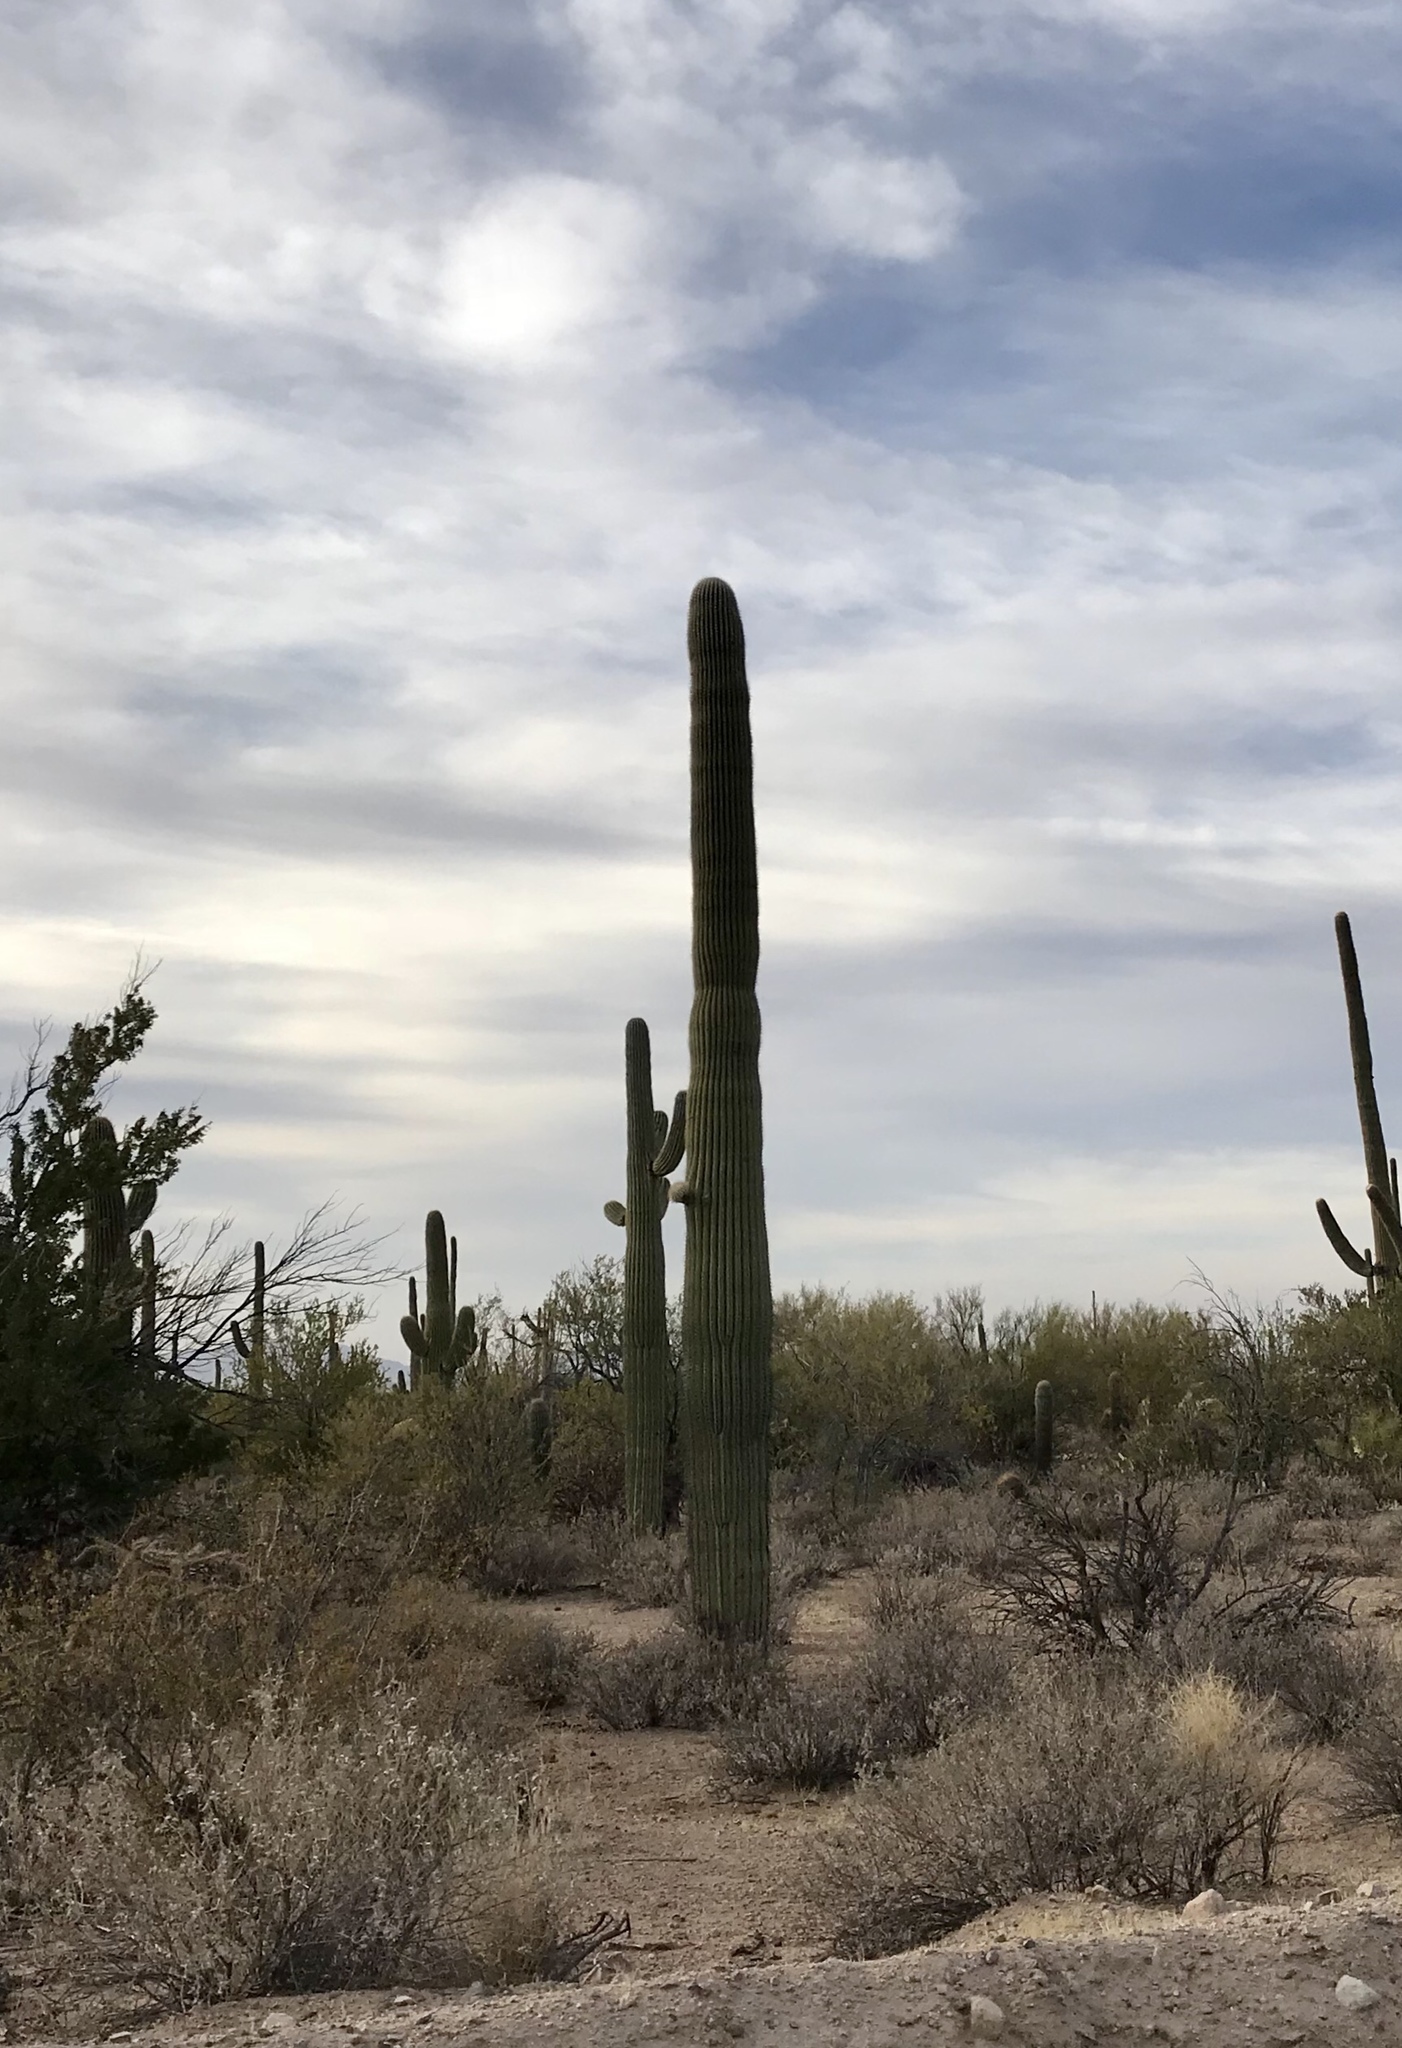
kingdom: Plantae
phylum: Tracheophyta
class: Magnoliopsida
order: Caryophyllales
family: Cactaceae
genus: Carnegiea
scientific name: Carnegiea gigantea
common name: Saguaro
